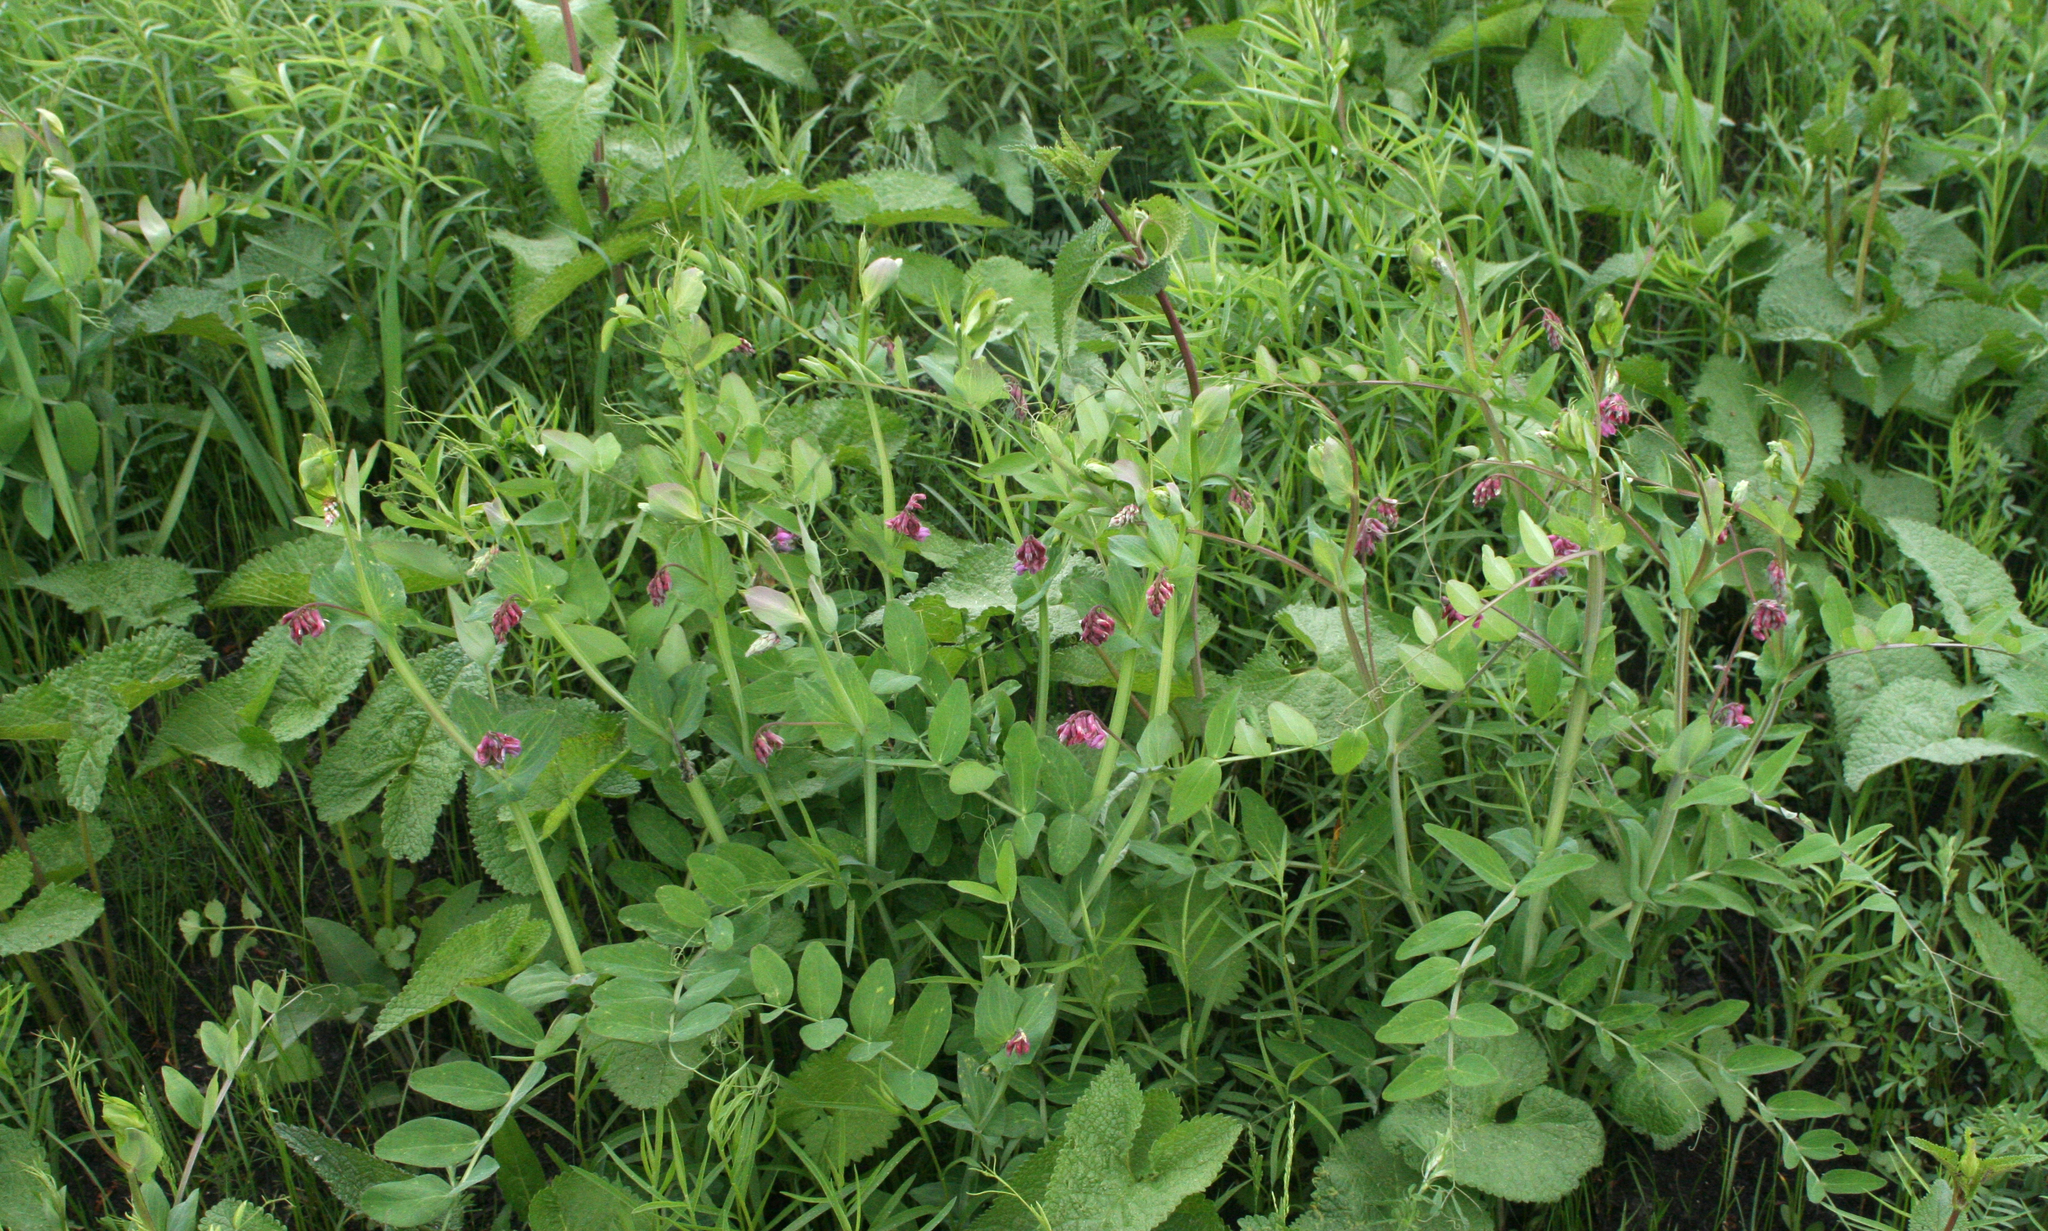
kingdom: Plantae
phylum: Tracheophyta
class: Magnoliopsida
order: Fabales
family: Fabaceae
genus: Lathyrus
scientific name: Lathyrus pisiformis
